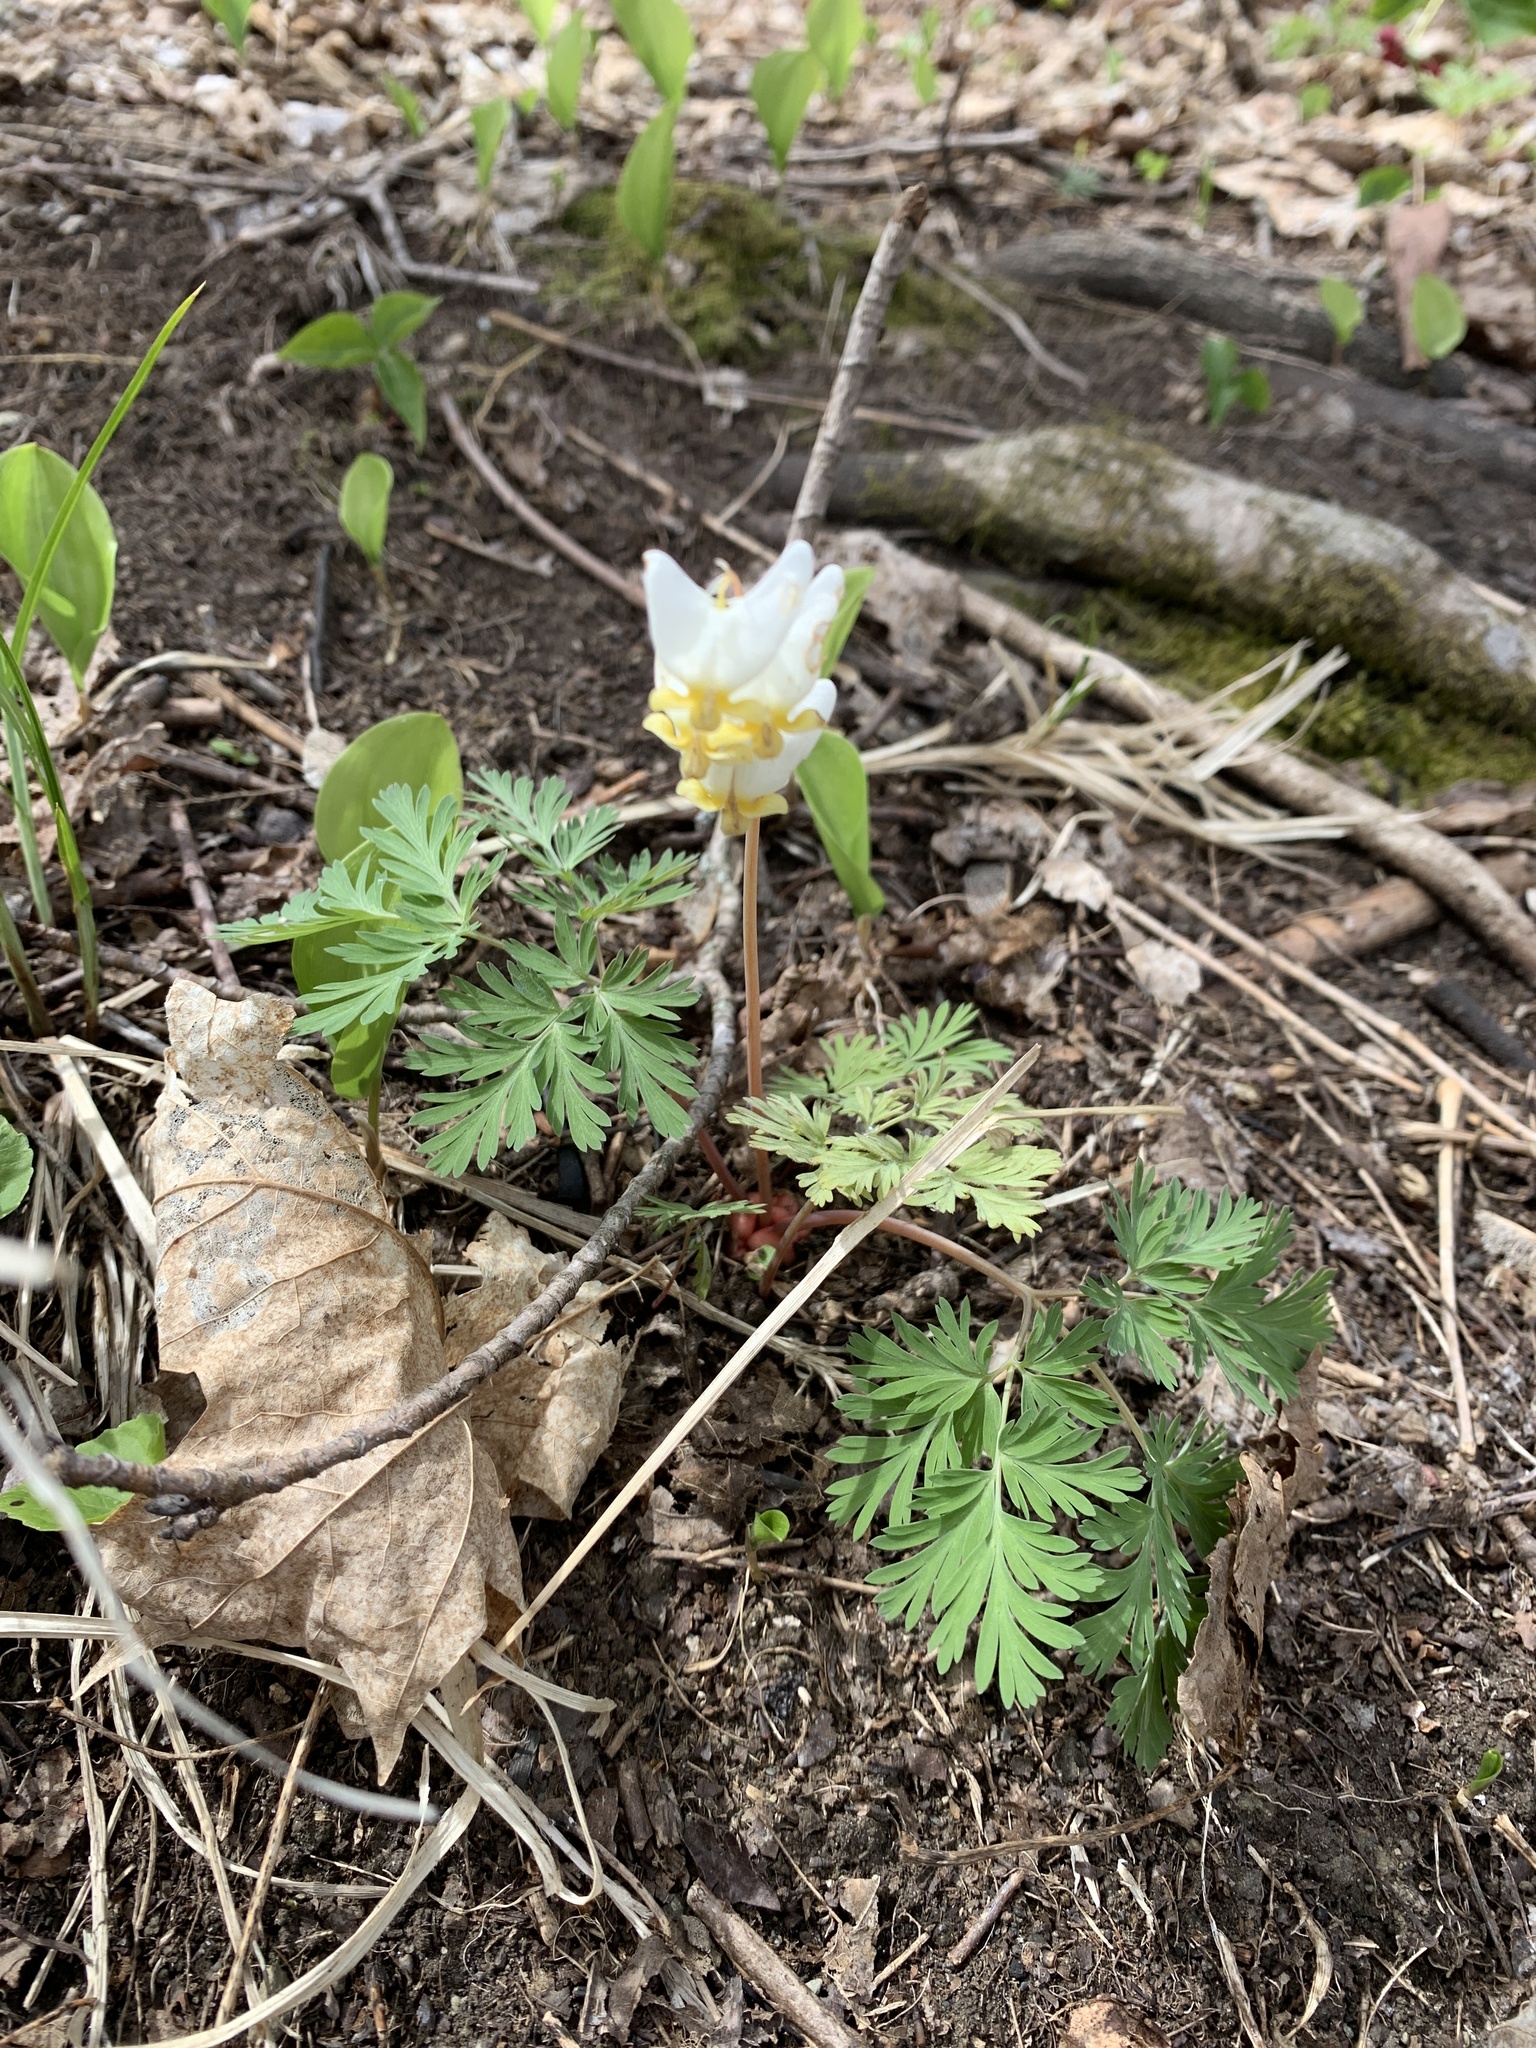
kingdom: Plantae
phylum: Tracheophyta
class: Magnoliopsida
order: Ranunculales
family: Papaveraceae
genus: Dicentra
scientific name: Dicentra cucullaria
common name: Dutchman's breeches
